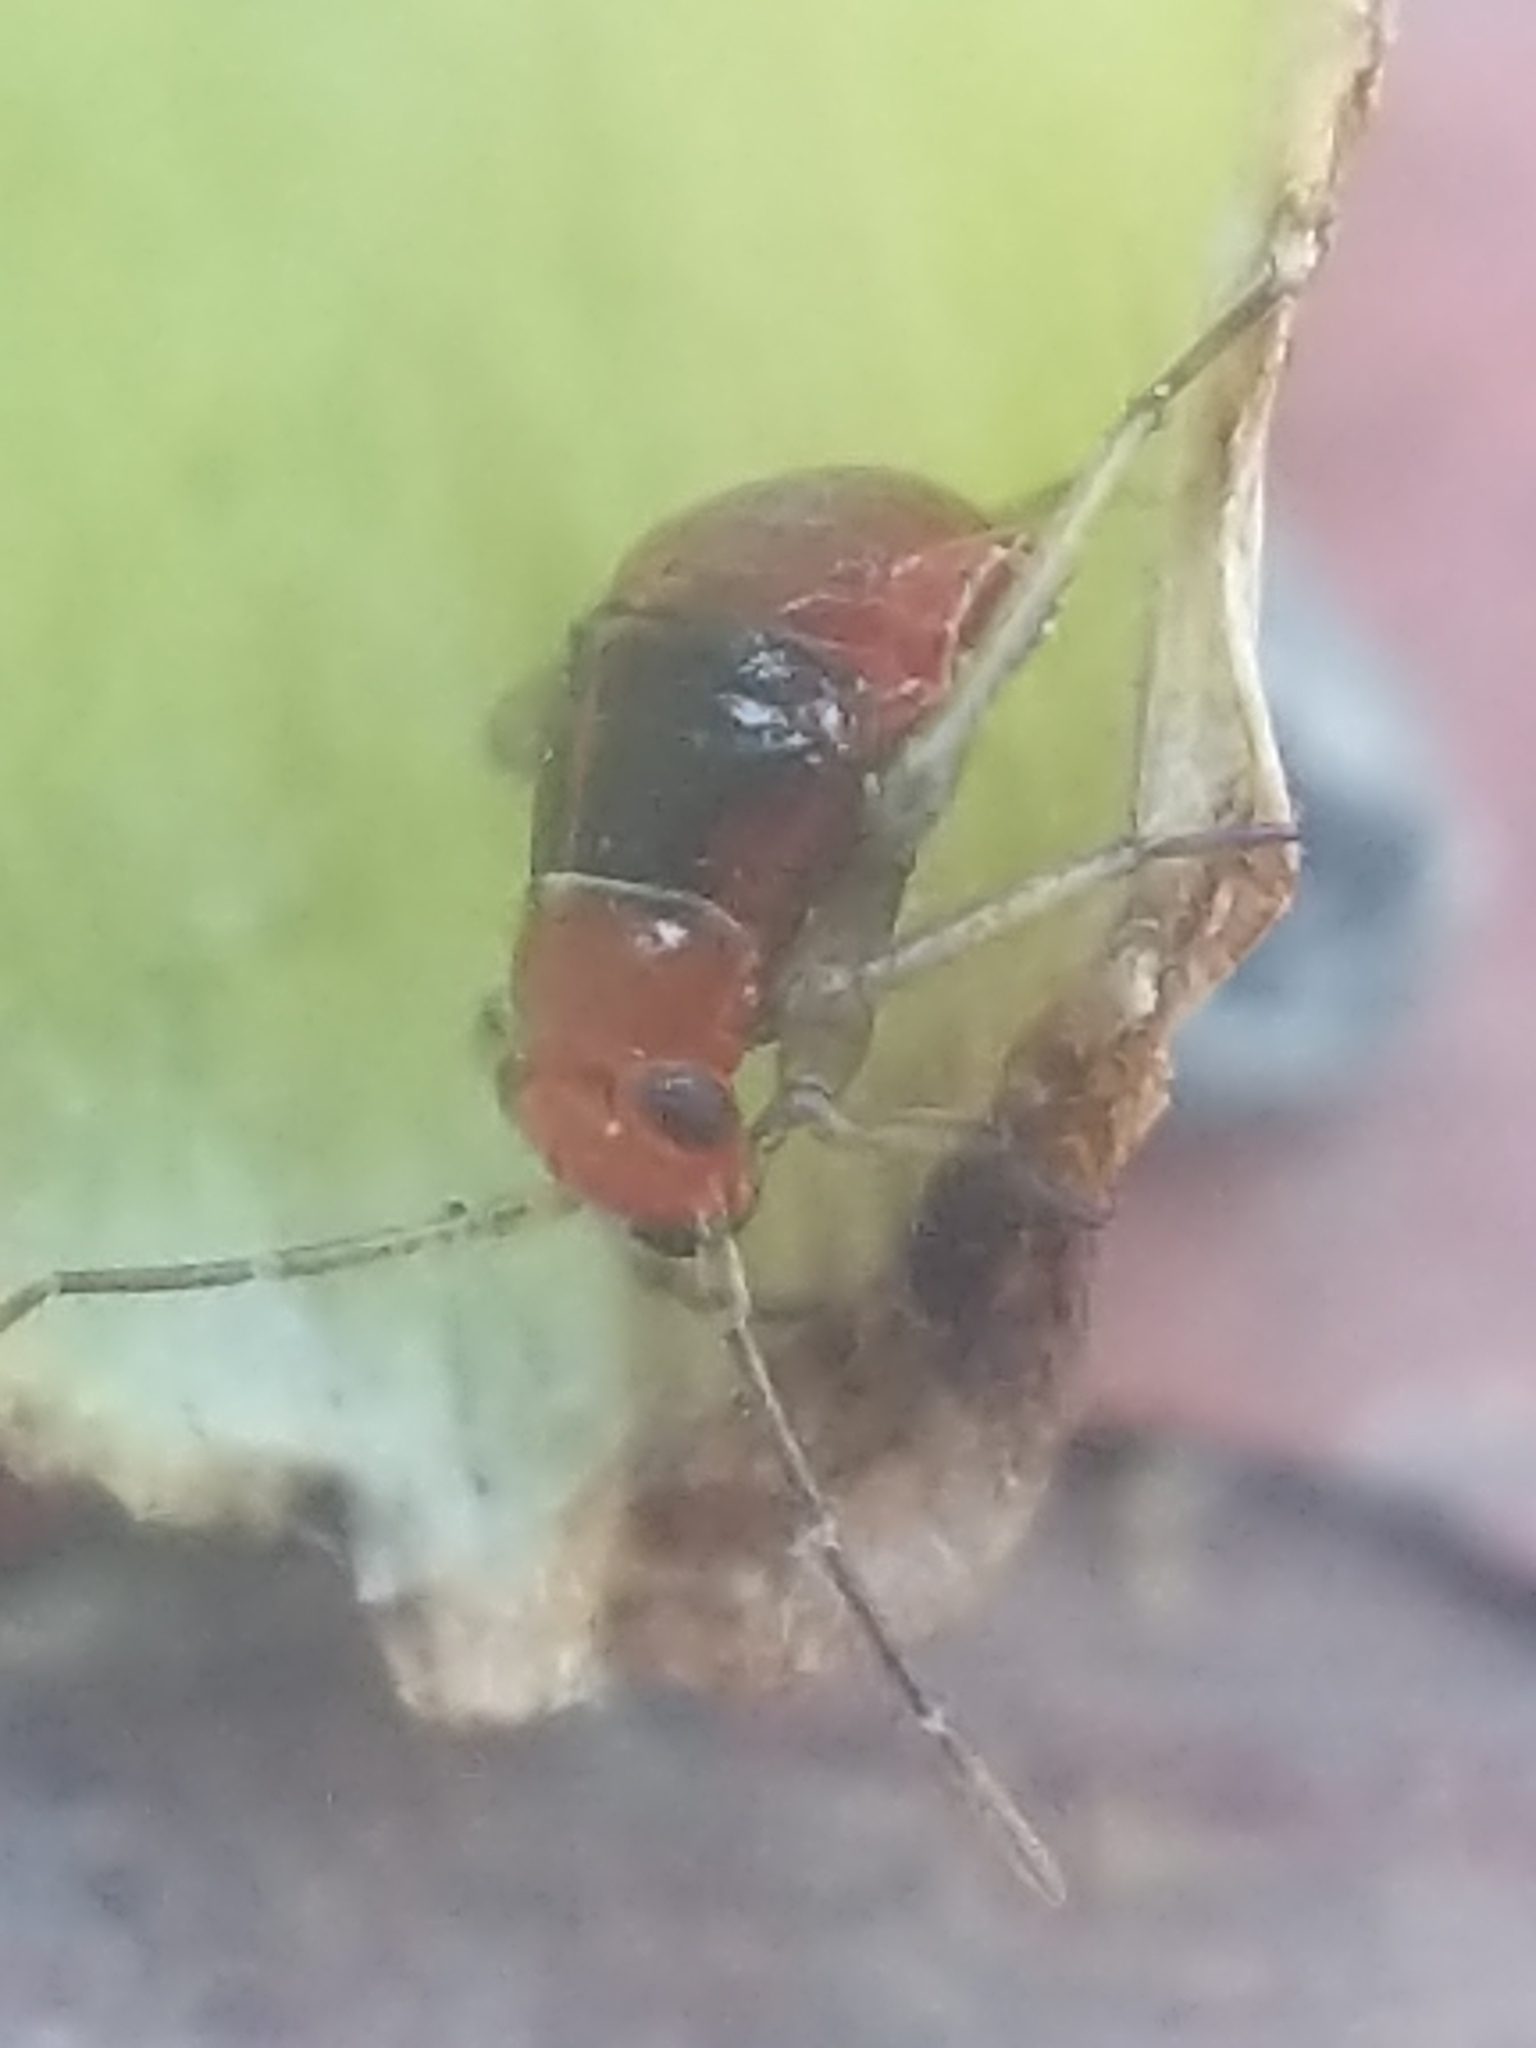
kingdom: Animalia
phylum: Arthropoda
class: Insecta
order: Hemiptera
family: Miridae
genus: Poecilocapsus
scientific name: Poecilocapsus lineatus
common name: Four-lined plant bug
